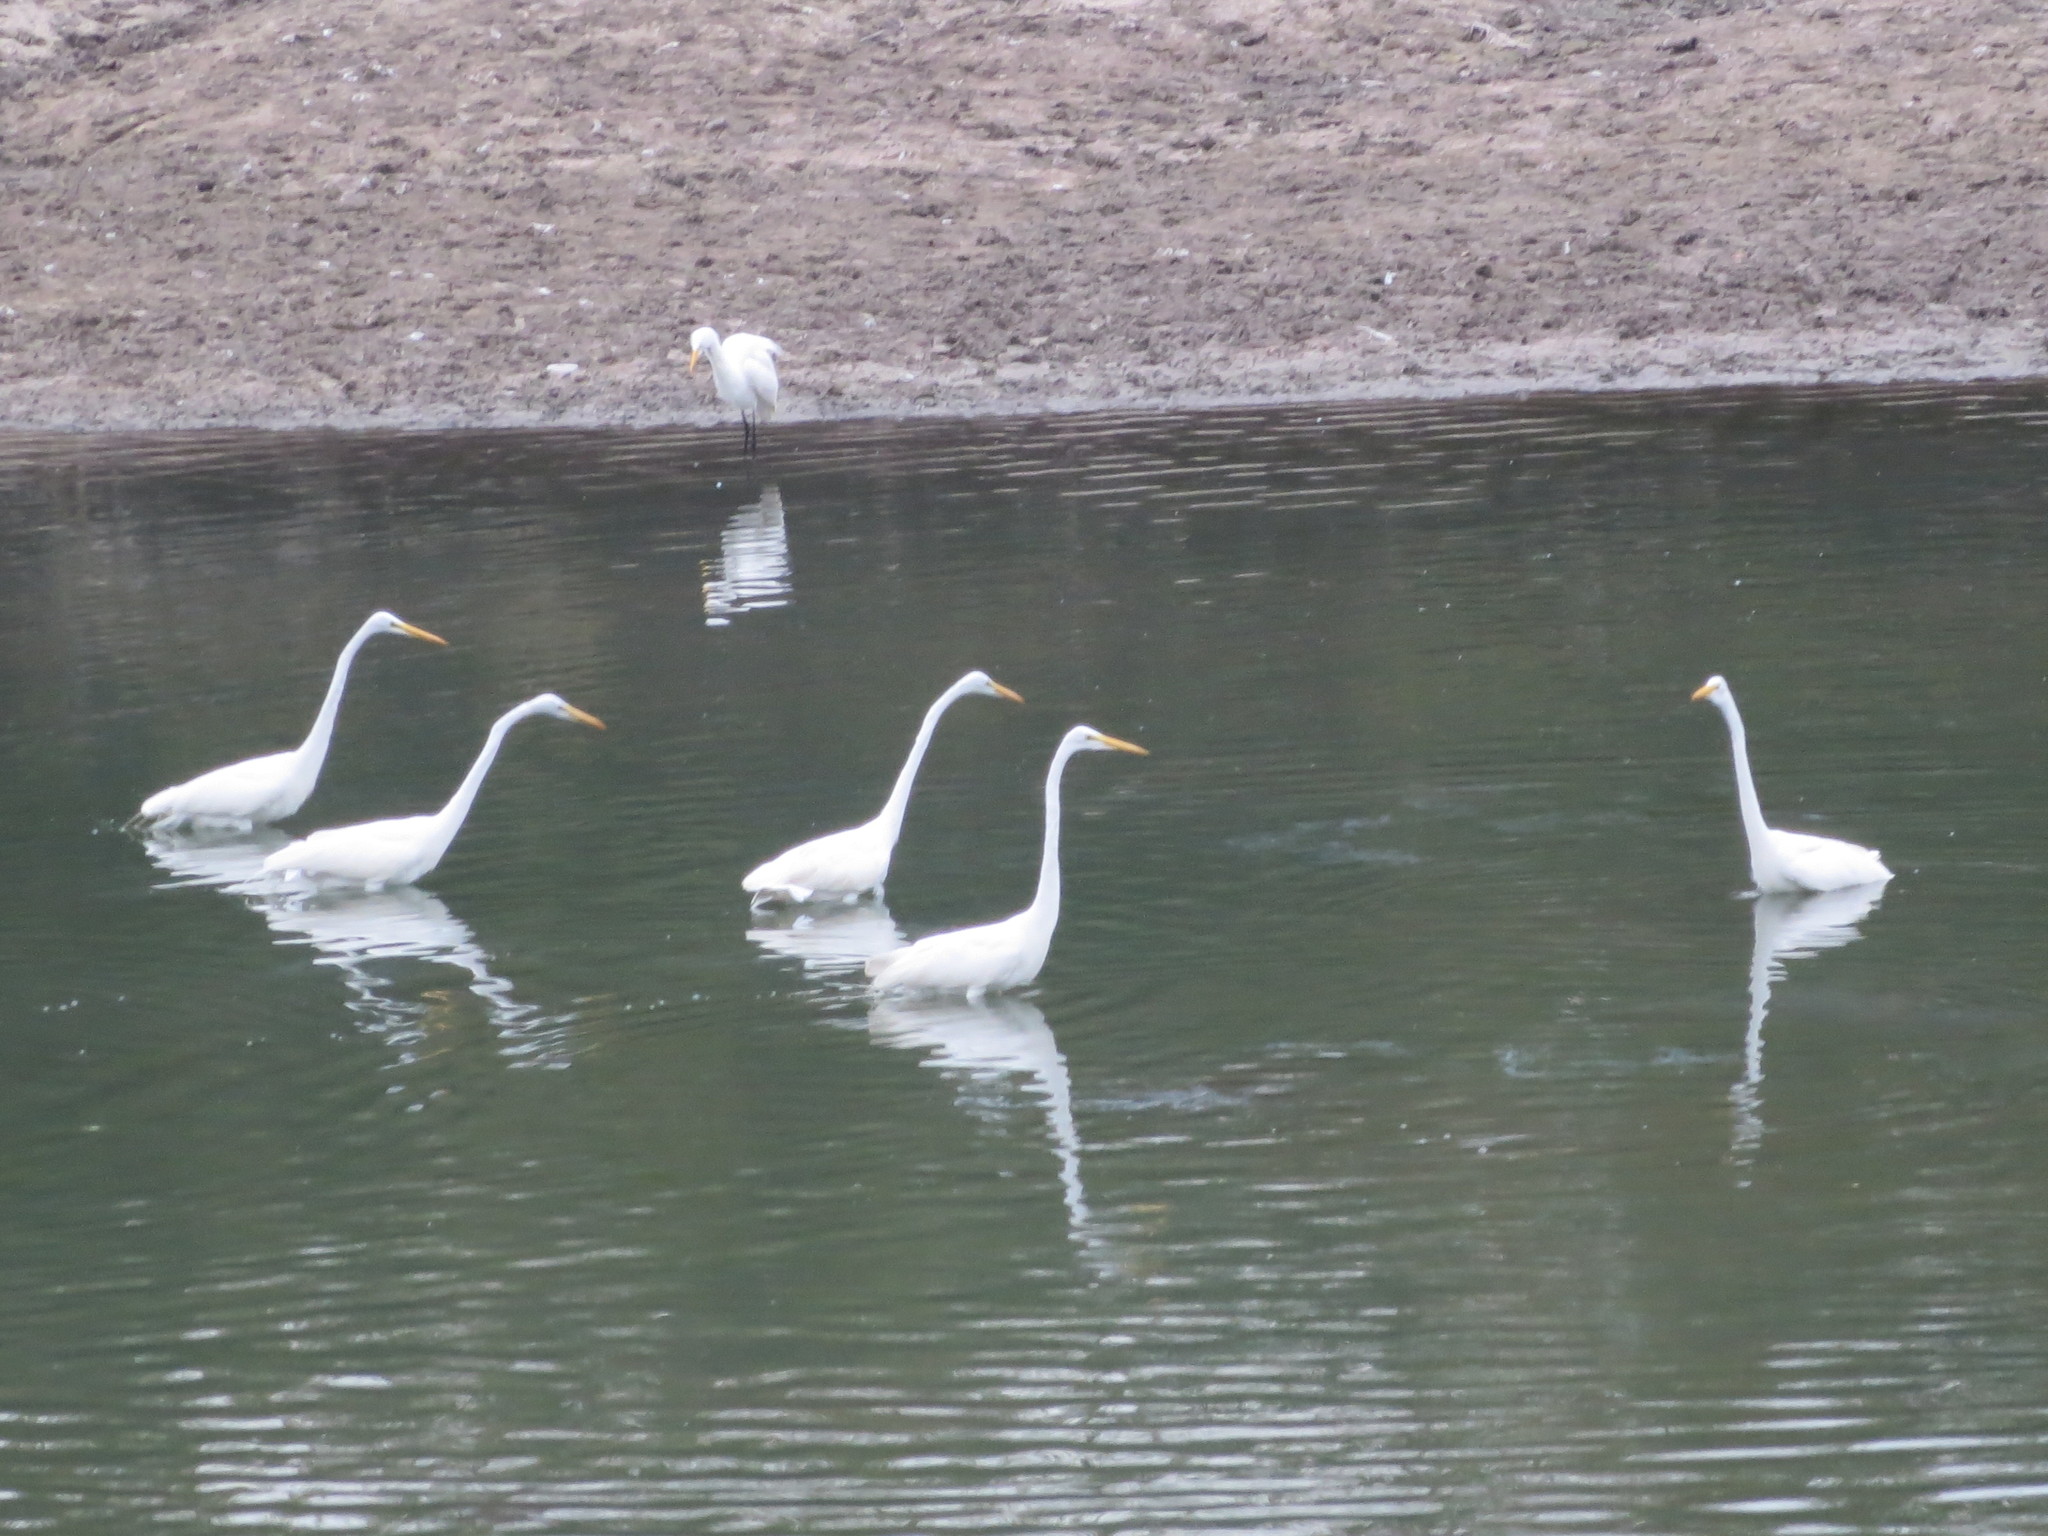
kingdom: Animalia
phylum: Chordata
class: Aves
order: Pelecaniformes
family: Ardeidae
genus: Ardea
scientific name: Ardea alba
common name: Great egret
